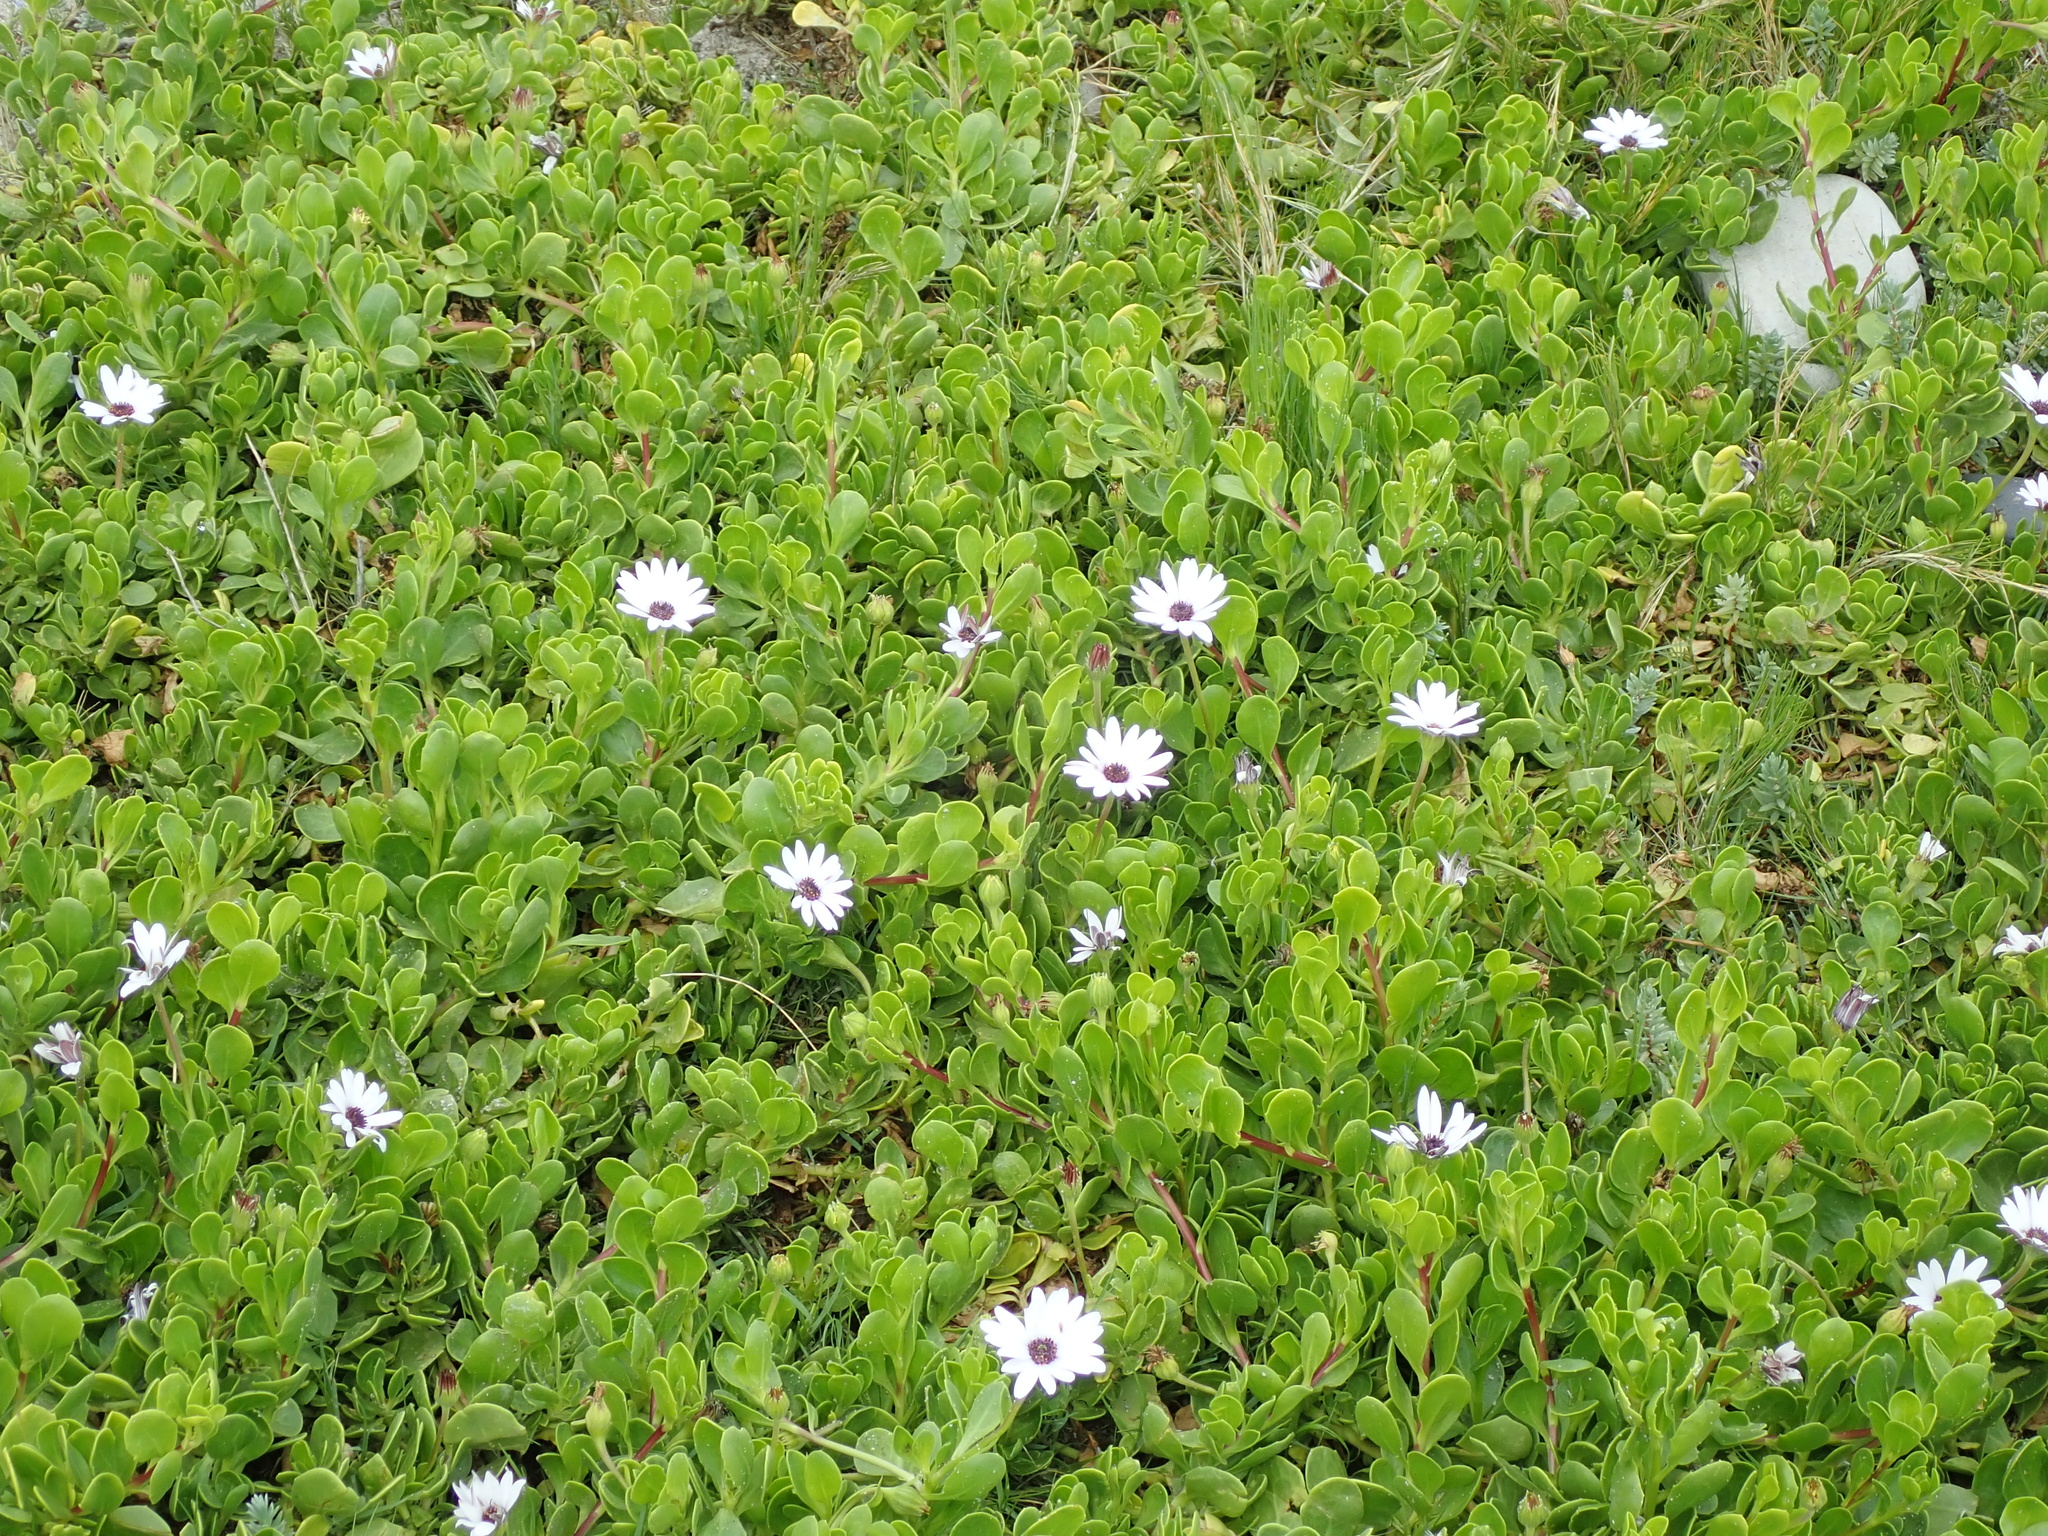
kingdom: Plantae
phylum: Tracheophyta
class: Magnoliopsida
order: Asterales
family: Asteraceae
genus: Dimorphotheca
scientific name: Dimorphotheca fruticosa
